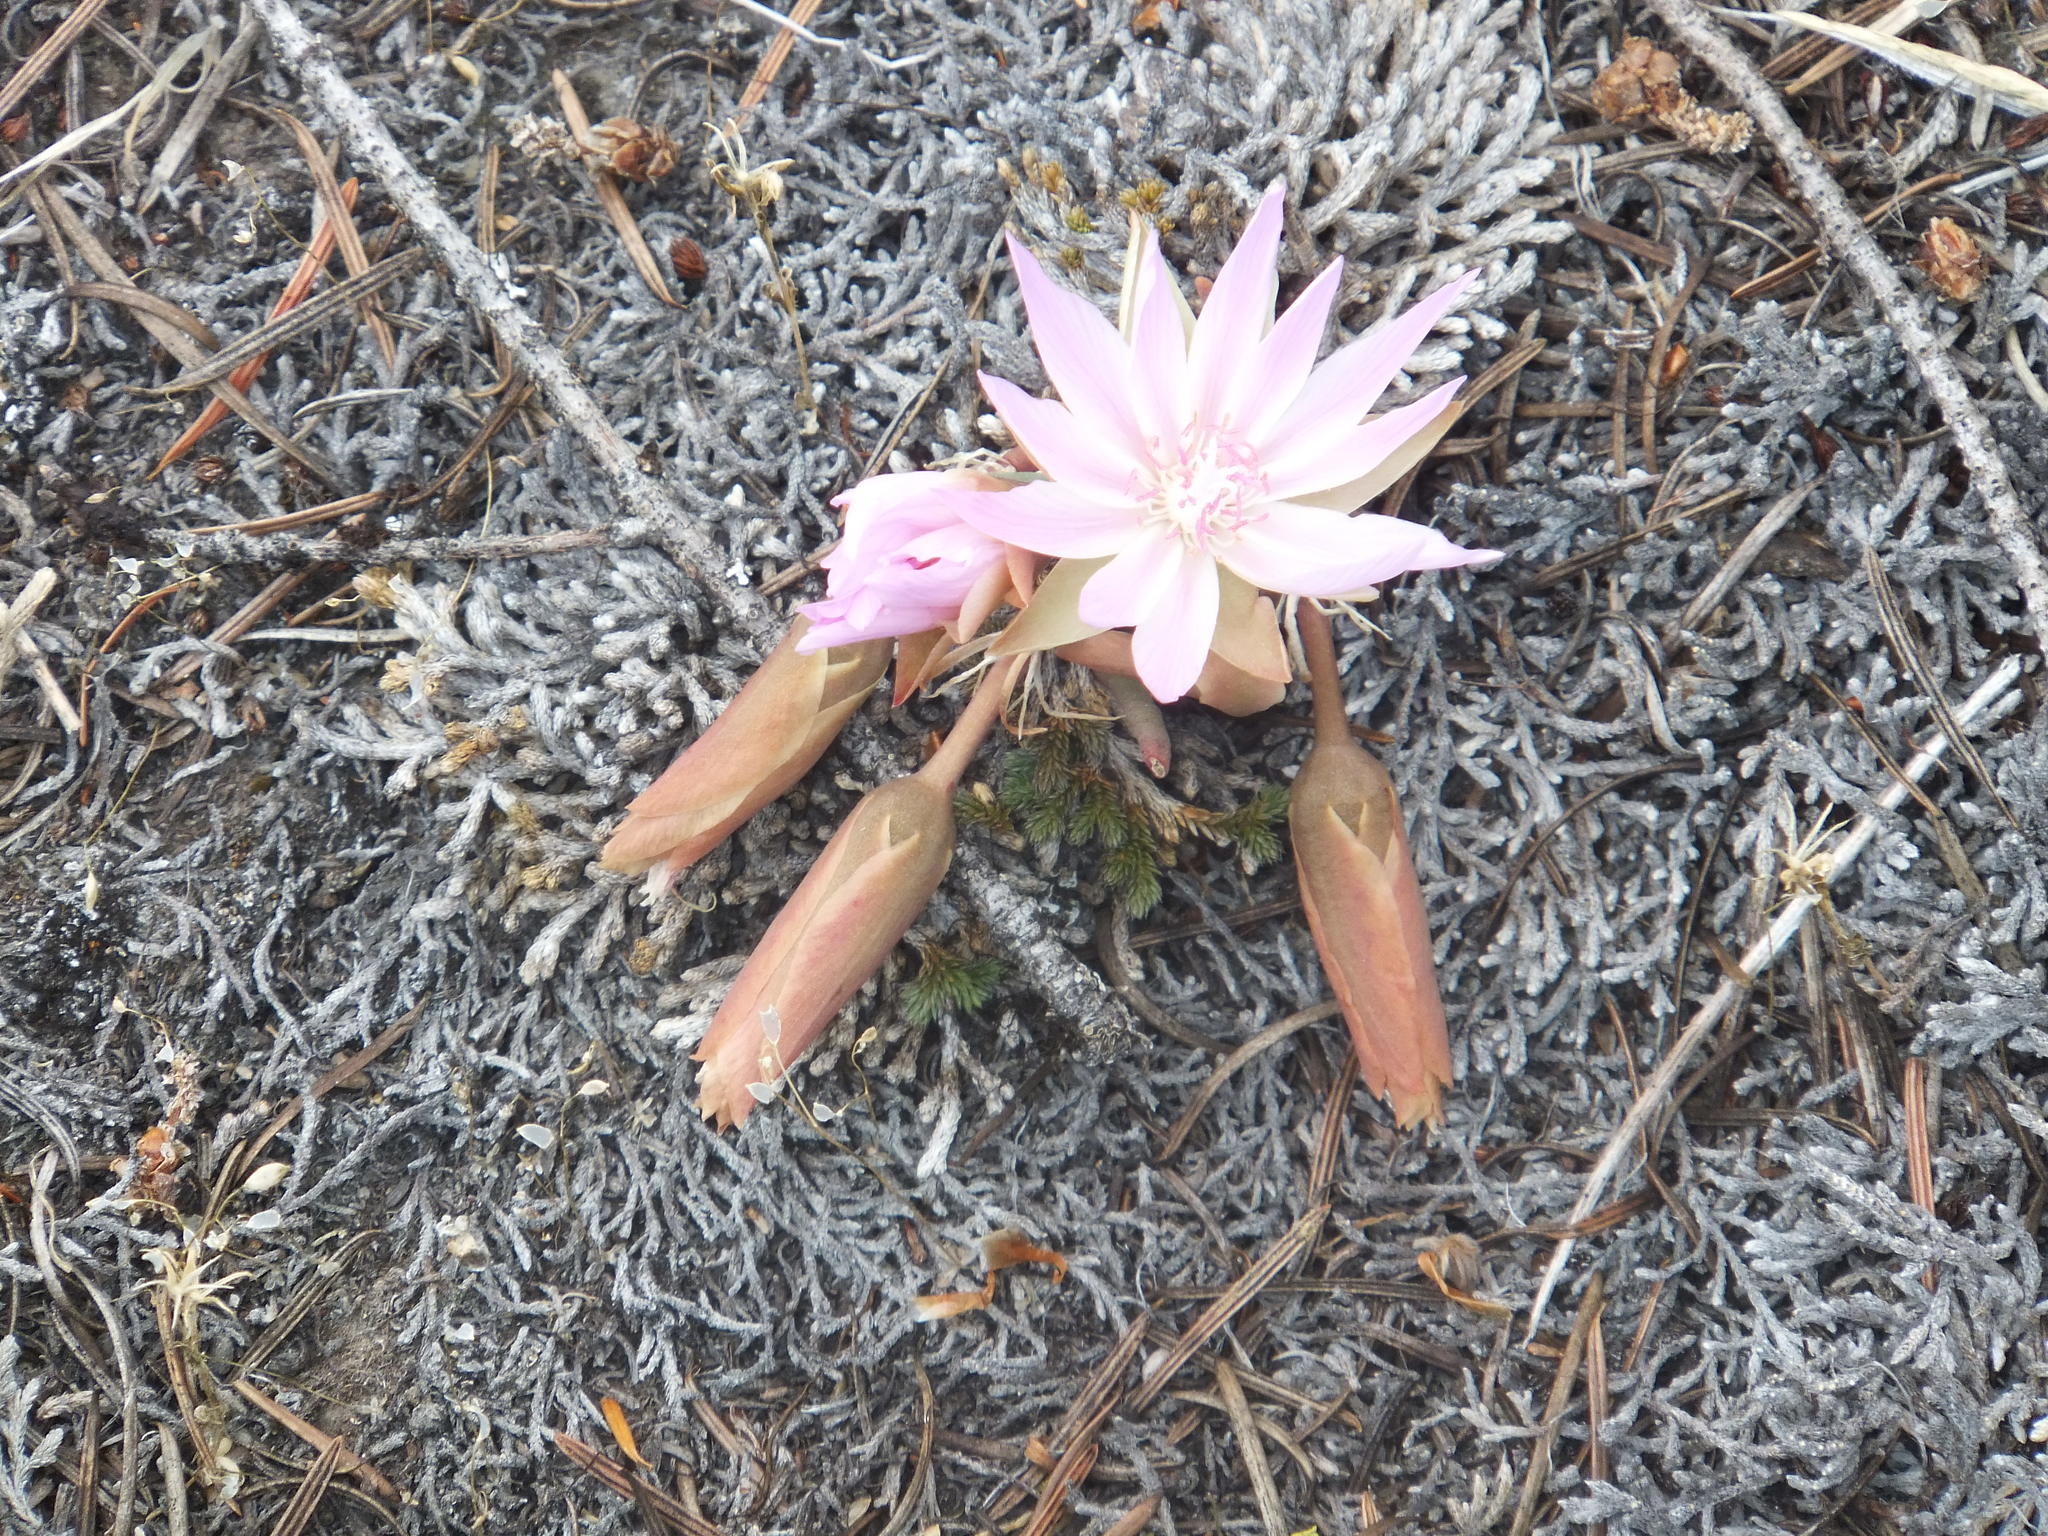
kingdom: Plantae
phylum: Tracheophyta
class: Magnoliopsida
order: Caryophyllales
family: Montiaceae
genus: Lewisia
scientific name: Lewisia rediviva
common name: Bitter-root
